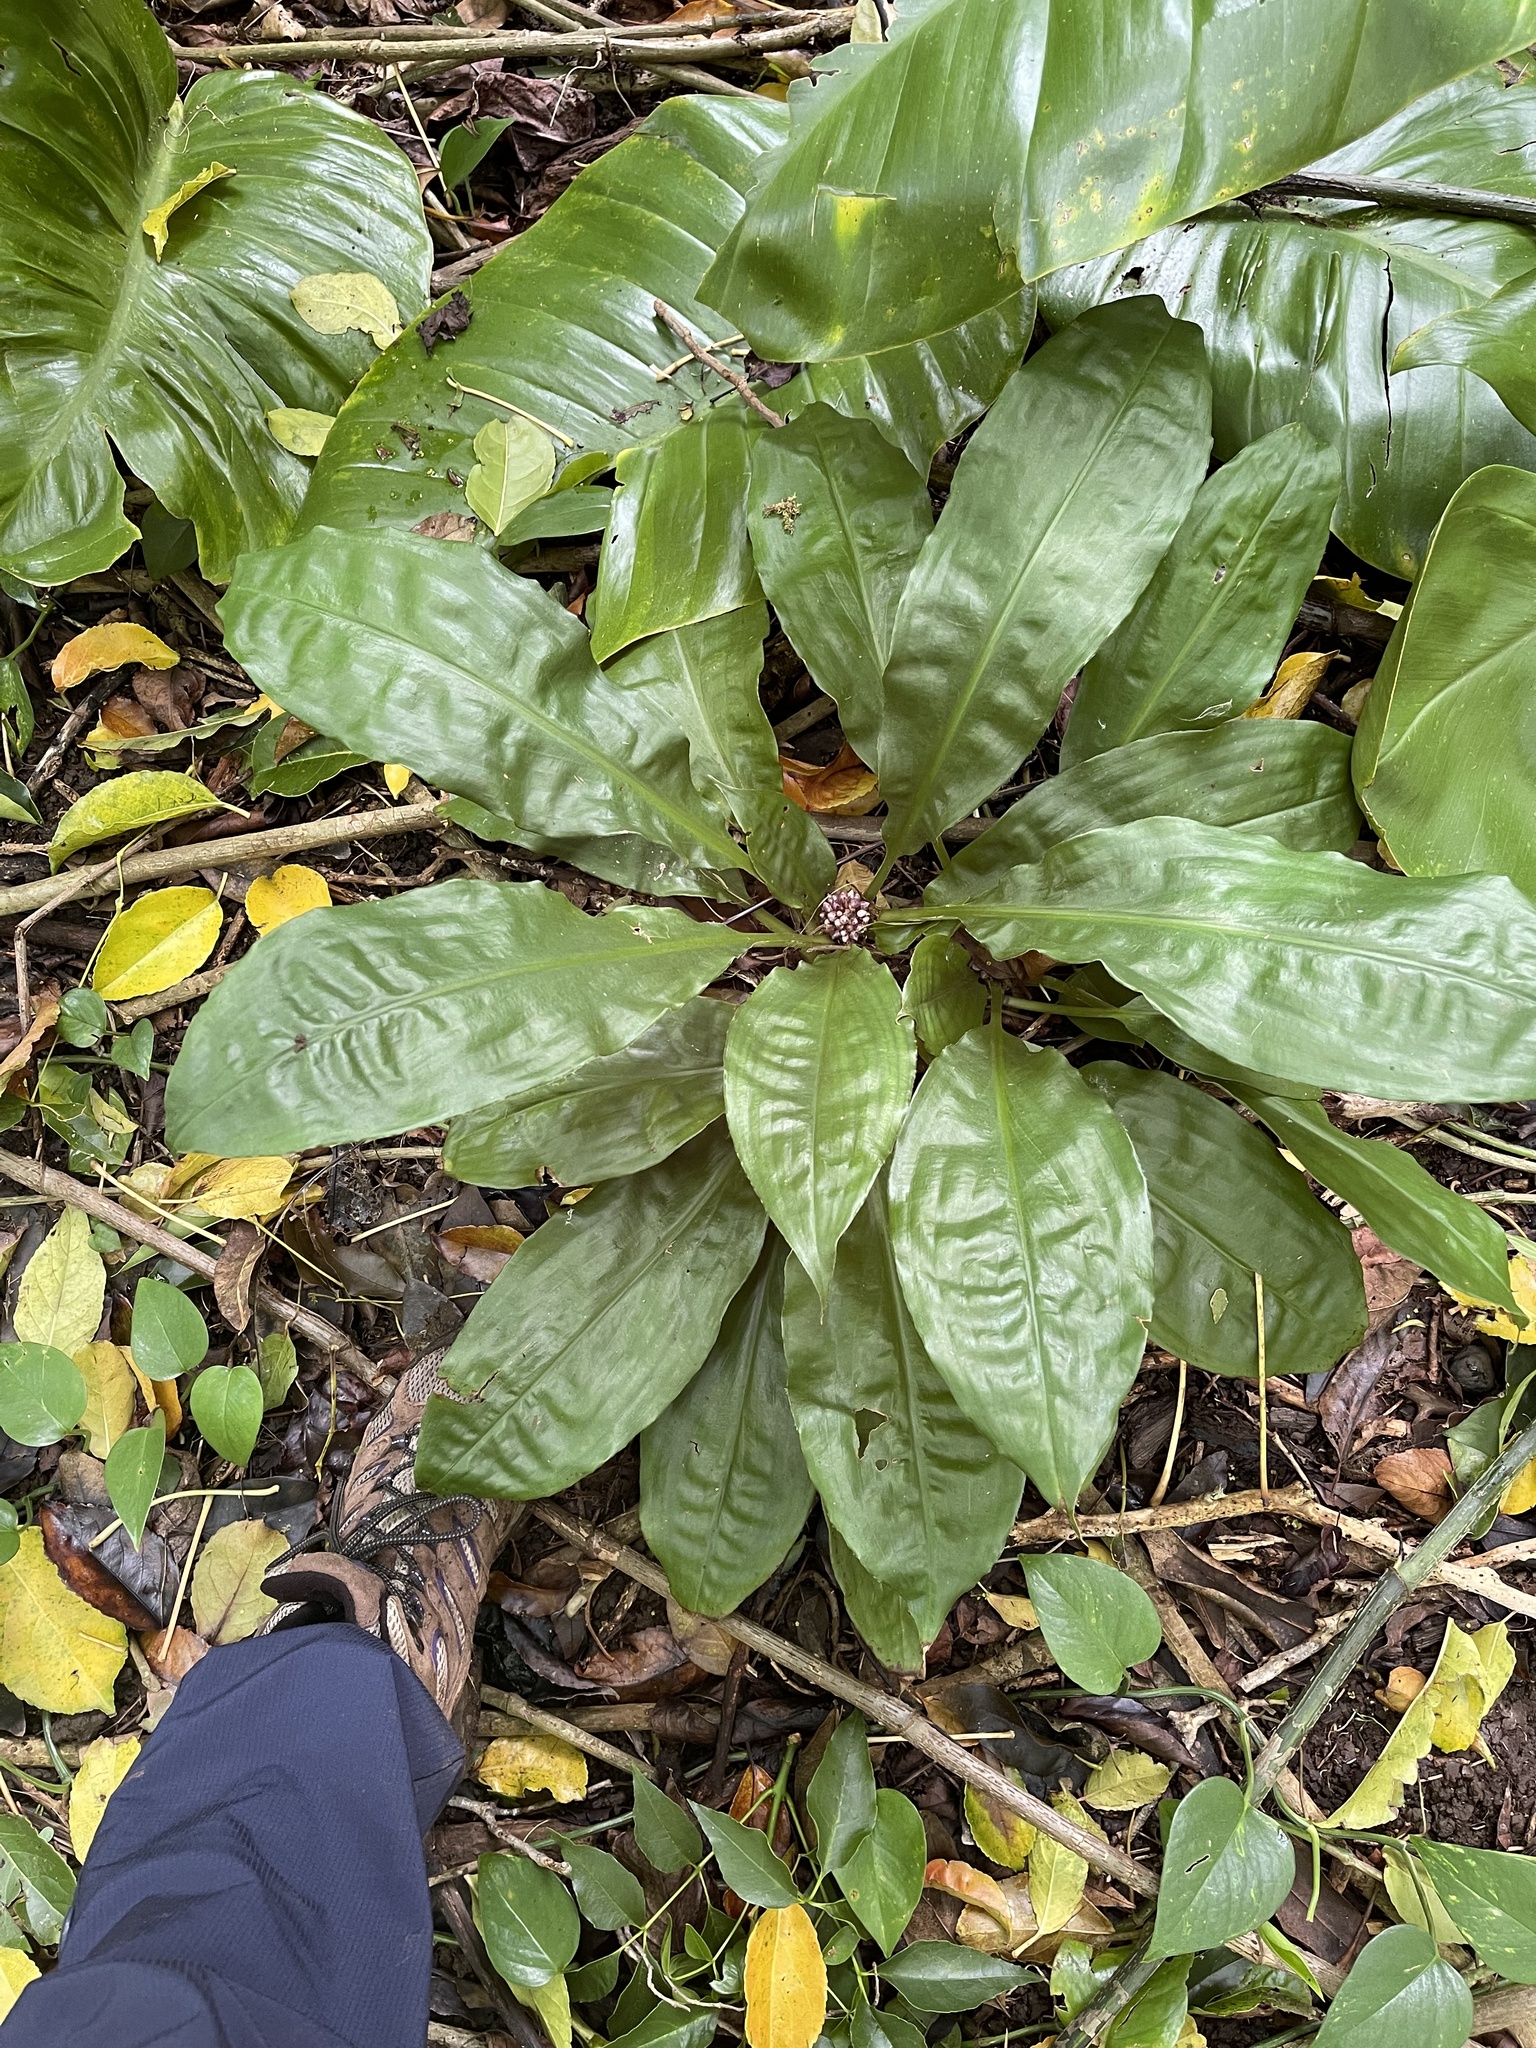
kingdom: Plantae
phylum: Tracheophyta
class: Liliopsida
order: Commelinales
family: Commelinaceae
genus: Palisota
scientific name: Palisota bracteosa
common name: Palisota
